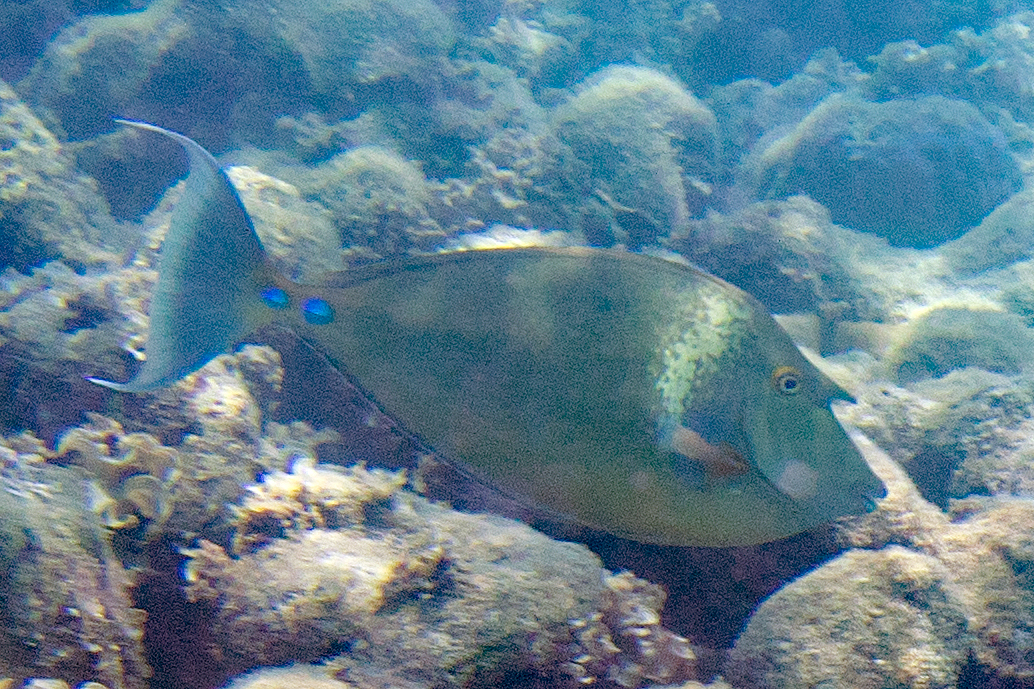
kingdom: Animalia
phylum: Chordata
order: Perciformes
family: Acanthuridae
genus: Naso
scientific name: Naso unicornis
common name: Bluespine unicornfish
